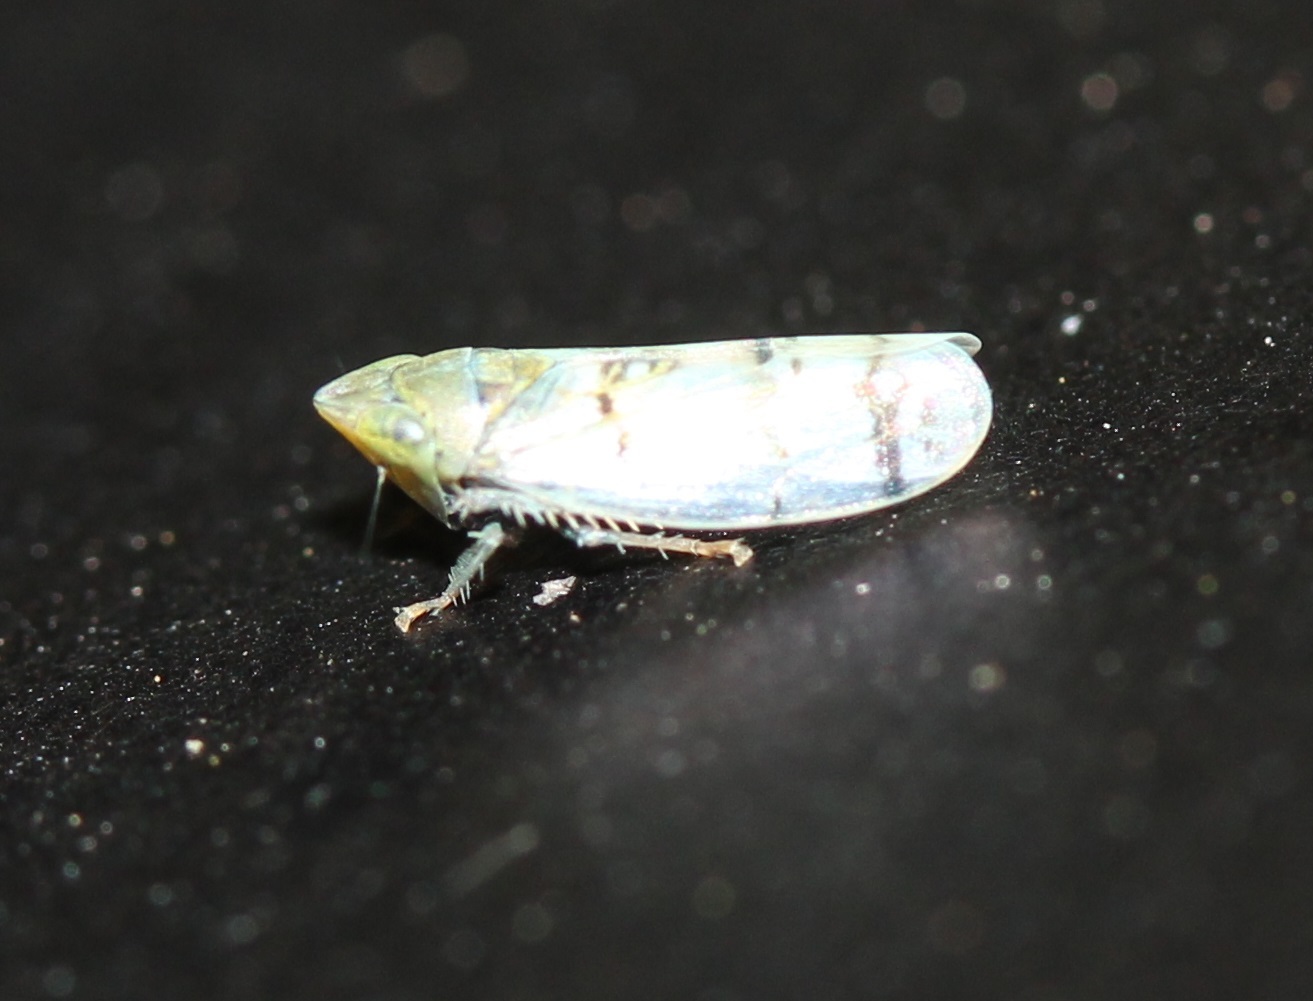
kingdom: Animalia
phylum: Arthropoda
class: Insecta
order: Hemiptera
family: Cicadellidae
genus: Japananus
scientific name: Japananus hyalinus
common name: The japanese maple leafhopper
